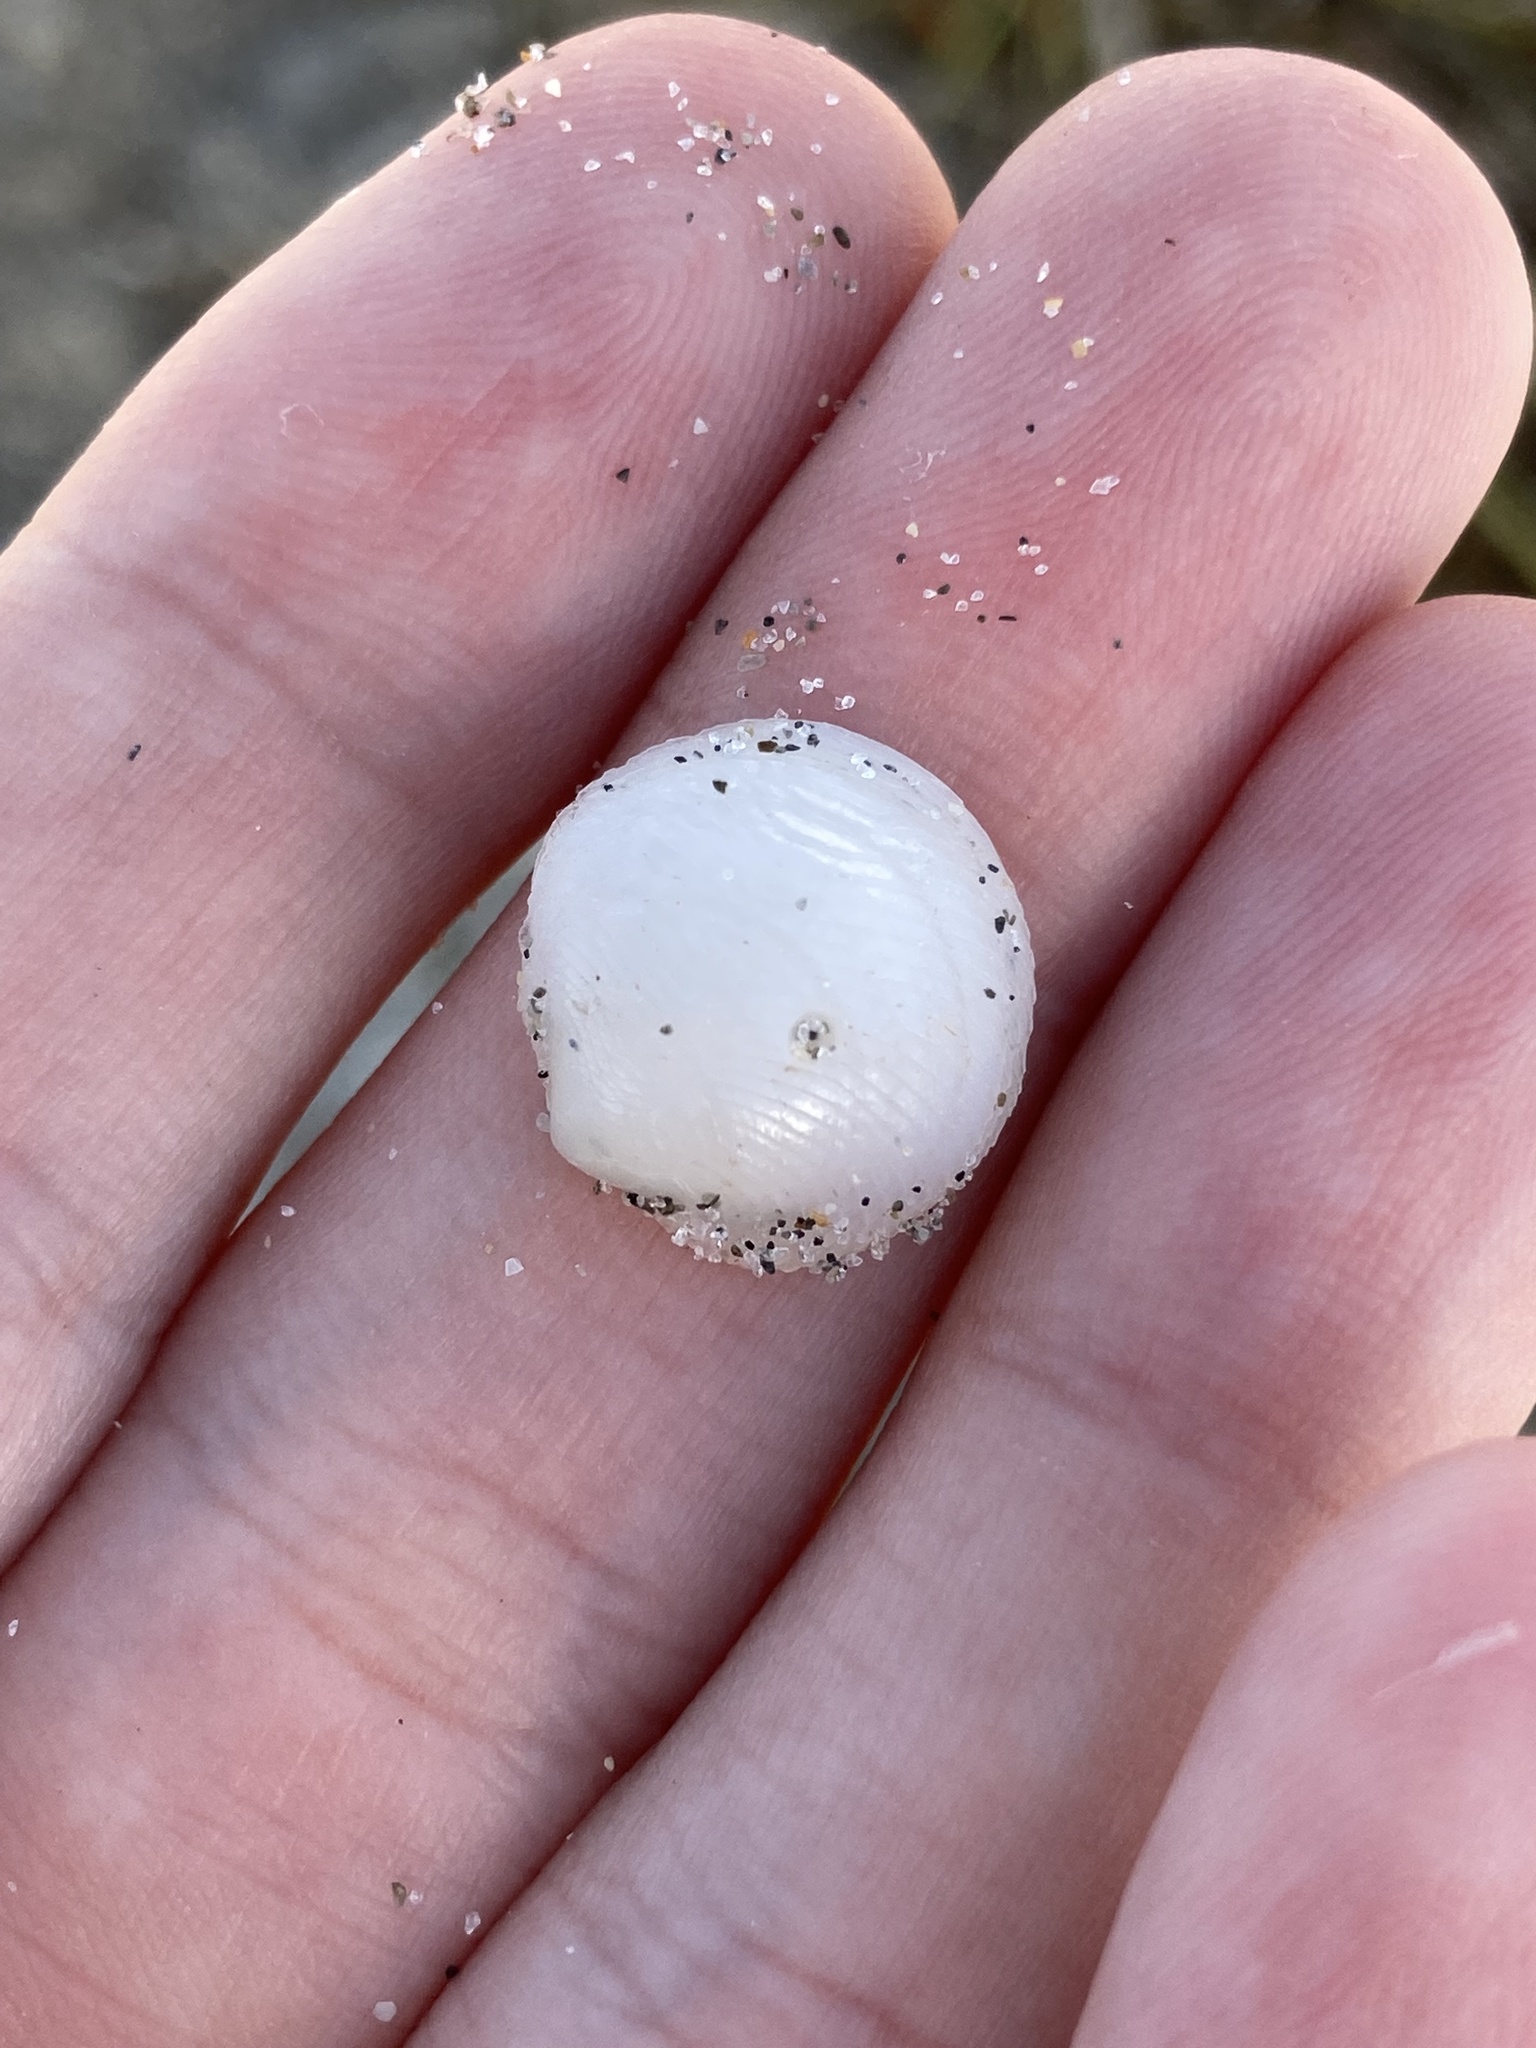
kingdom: Animalia
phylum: Mollusca
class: Bivalvia
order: Lucinida
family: Lucinidae
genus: Divalinga
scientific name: Divalinga quadrisulcata
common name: Cross-hatched lucine
